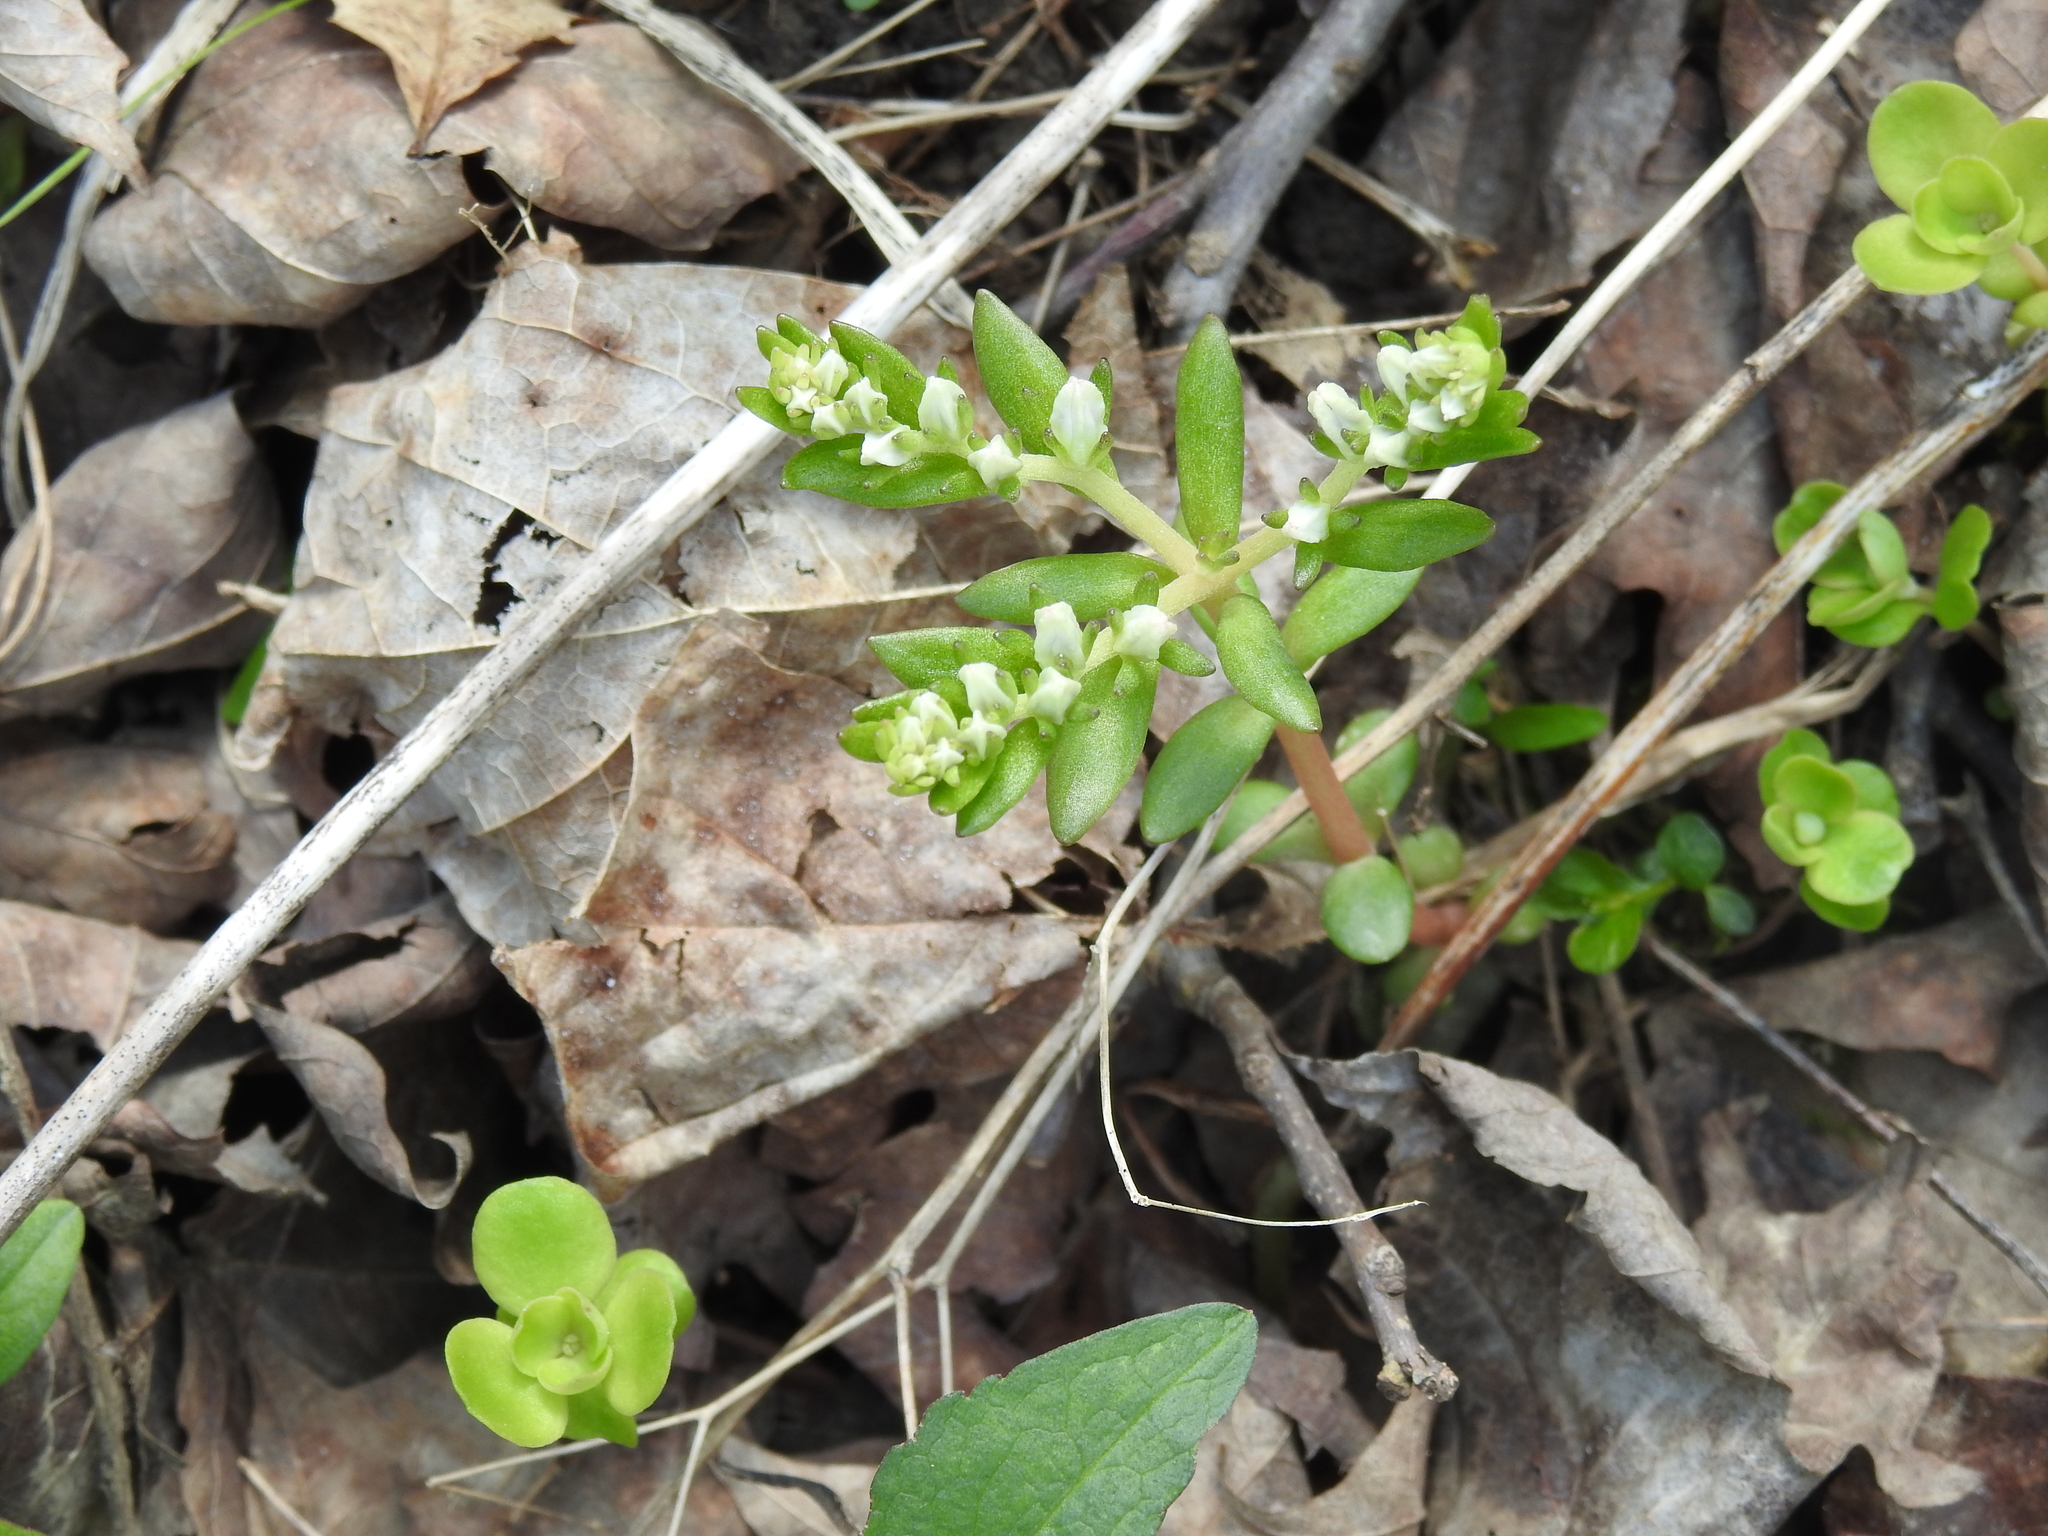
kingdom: Plantae
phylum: Tracheophyta
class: Magnoliopsida
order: Saxifragales
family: Crassulaceae
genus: Sedum
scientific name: Sedum ternatum
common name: Wild stonecrop
